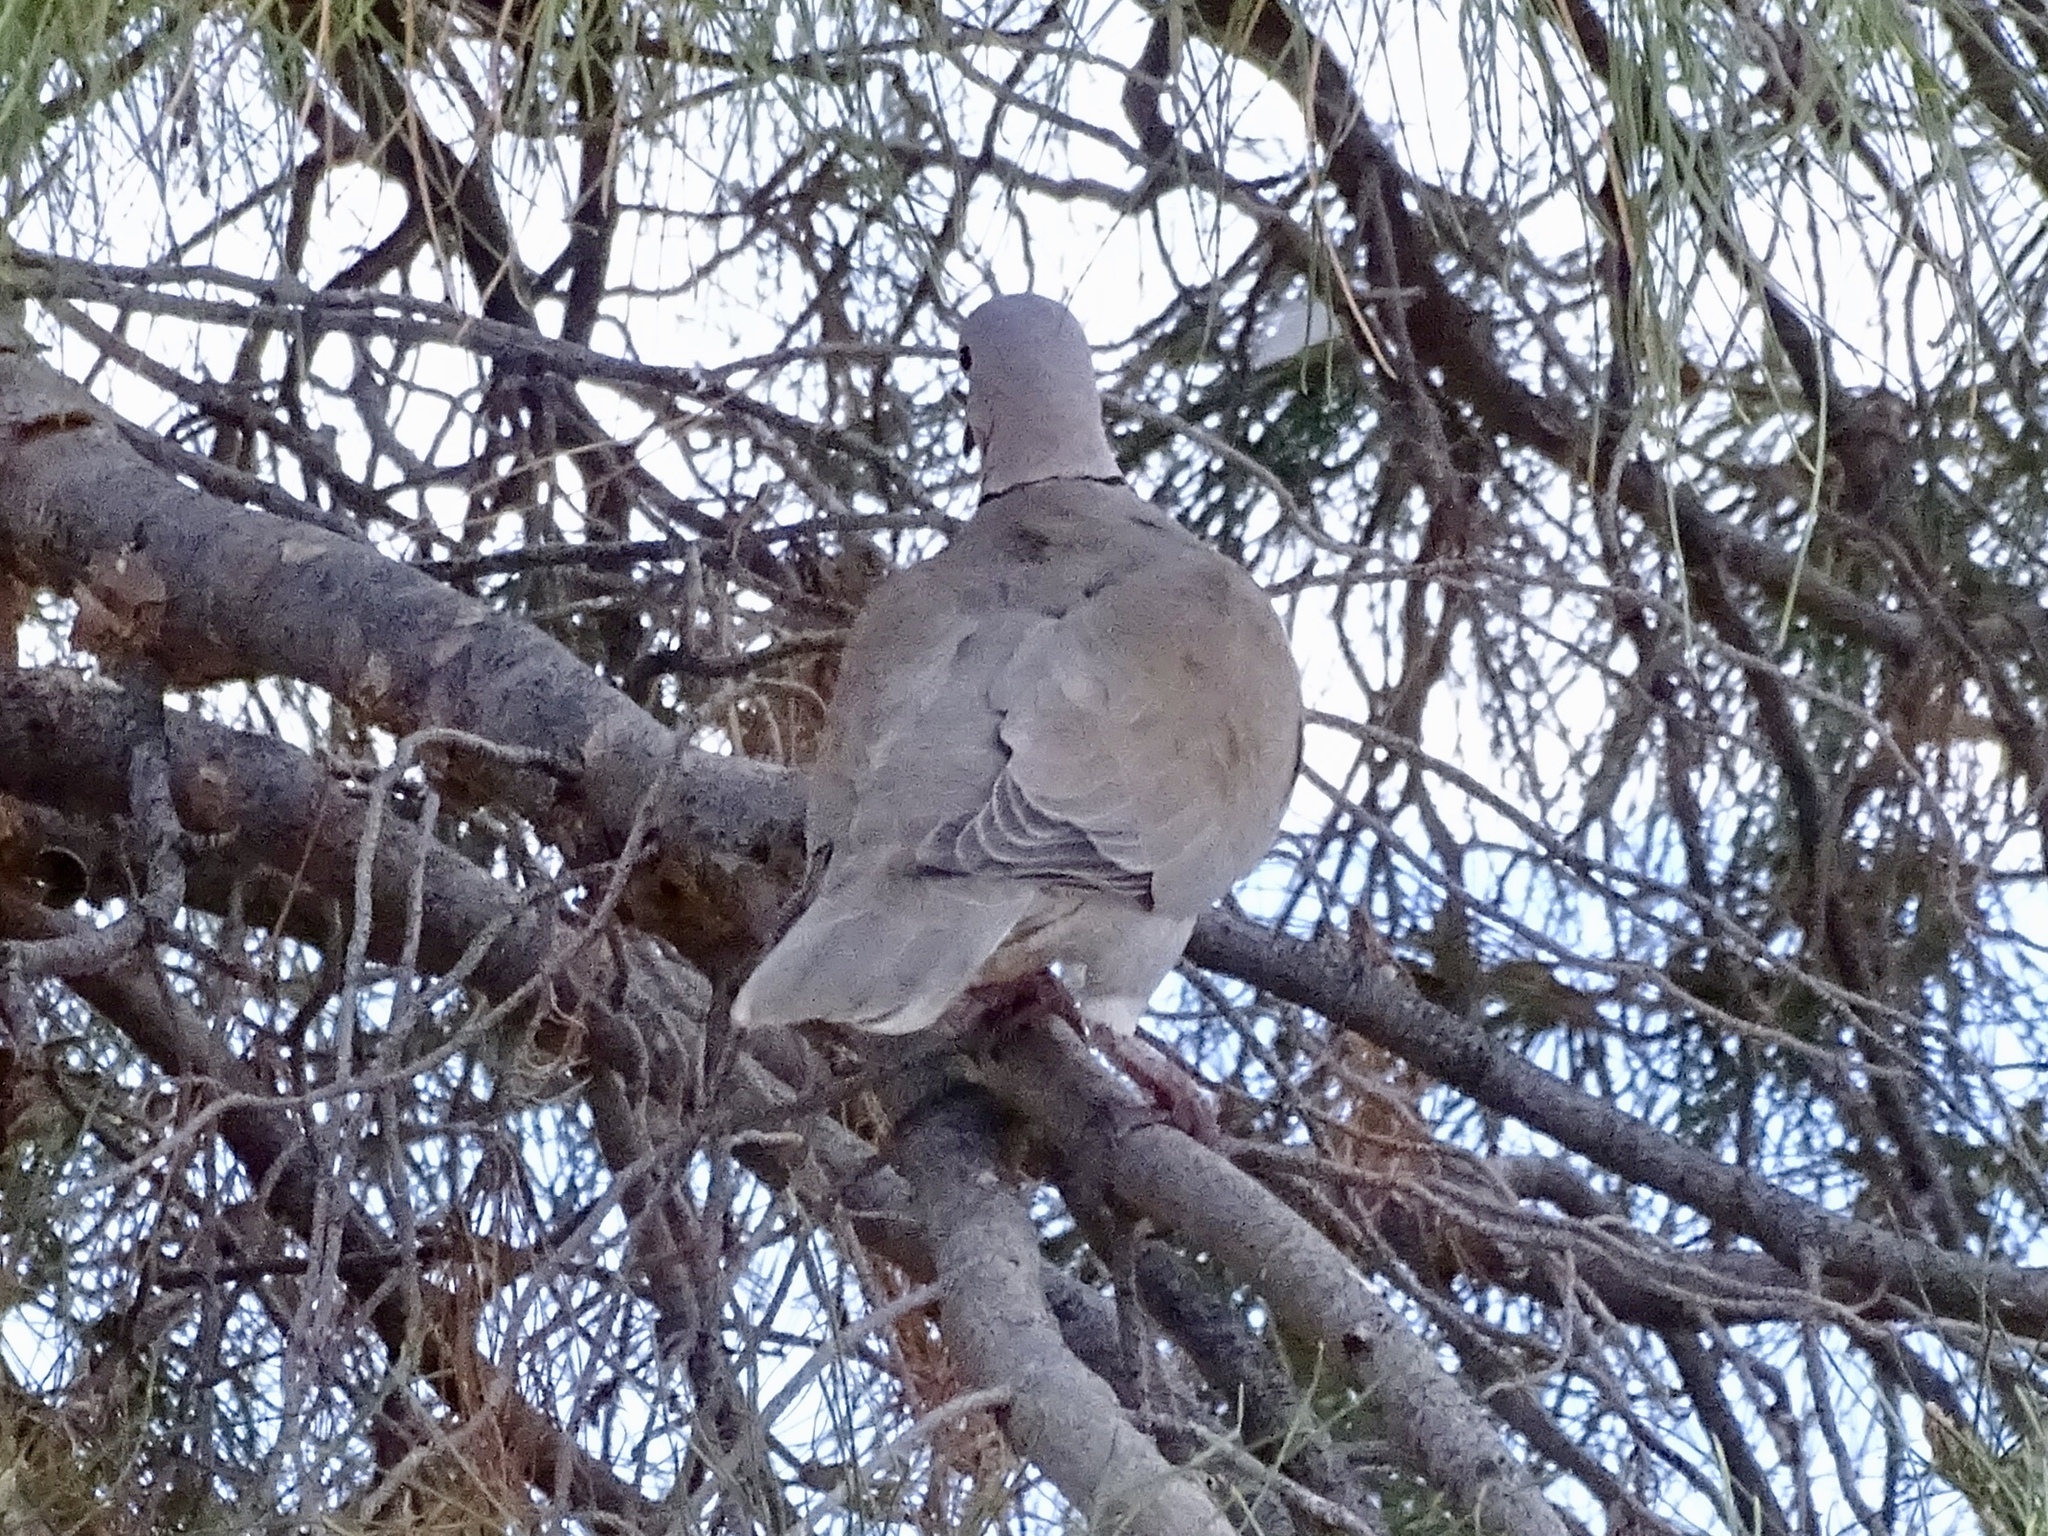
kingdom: Animalia
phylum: Chordata
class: Aves
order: Columbiformes
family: Columbidae
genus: Streptopelia
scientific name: Streptopelia decaocto
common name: Eurasian collared dove
